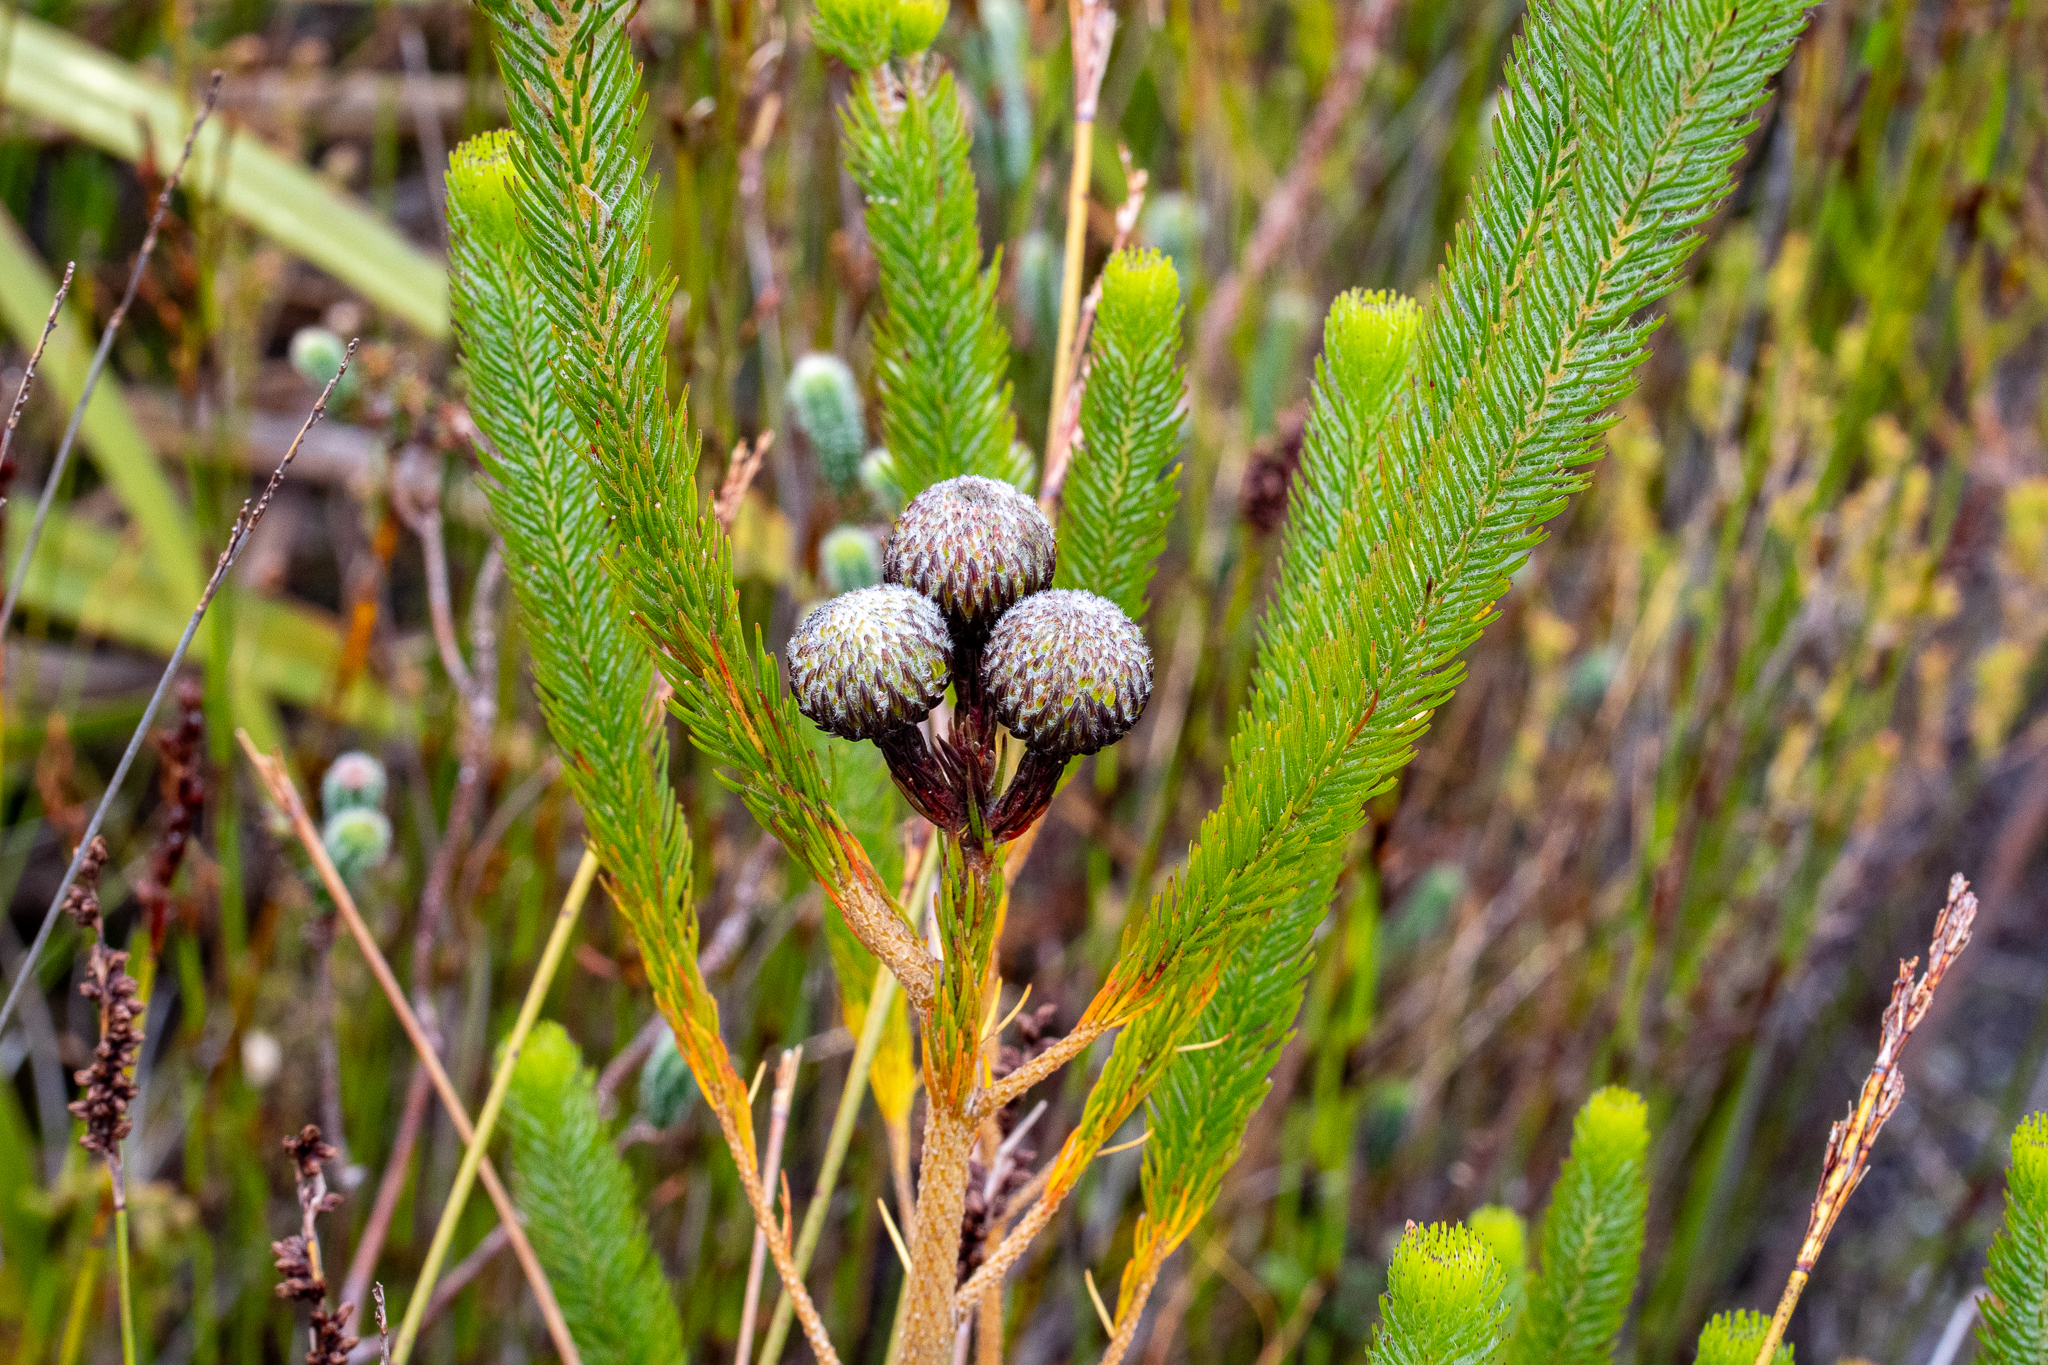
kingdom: Plantae
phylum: Tracheophyta
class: Magnoliopsida
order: Bruniales
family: Bruniaceae
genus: Berzelia
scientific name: Berzelia albiflora
